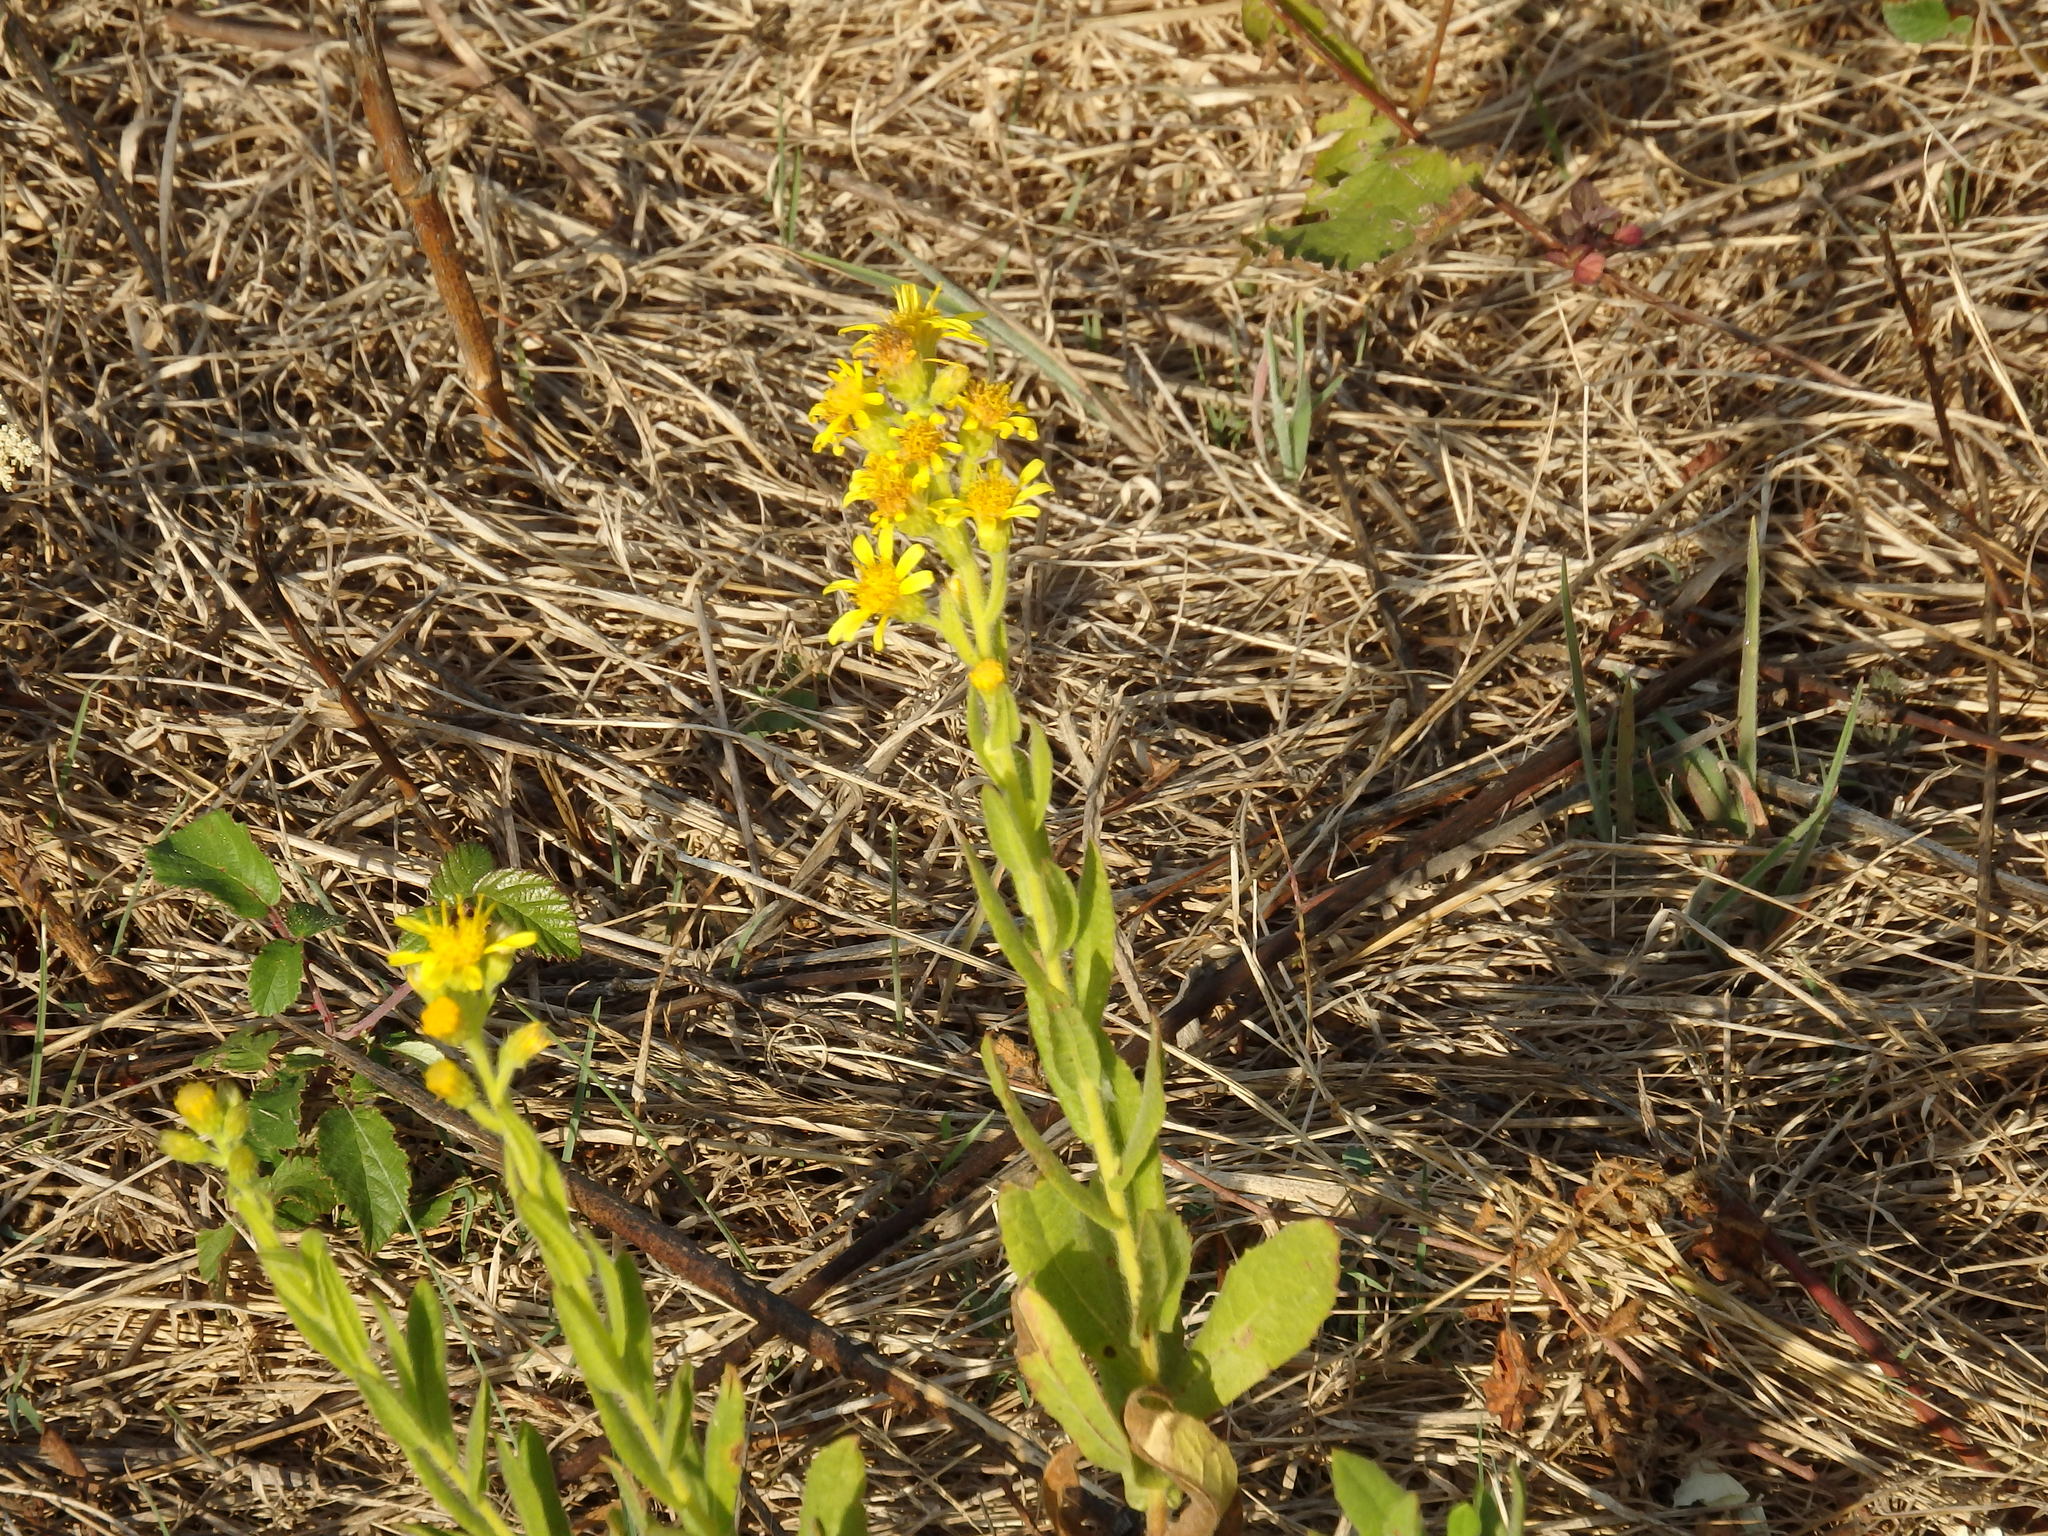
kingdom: Plantae
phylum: Tracheophyta
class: Magnoliopsida
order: Asterales
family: Asteraceae
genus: Dittrichia
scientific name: Dittrichia viscosa
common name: Woody fleabane
